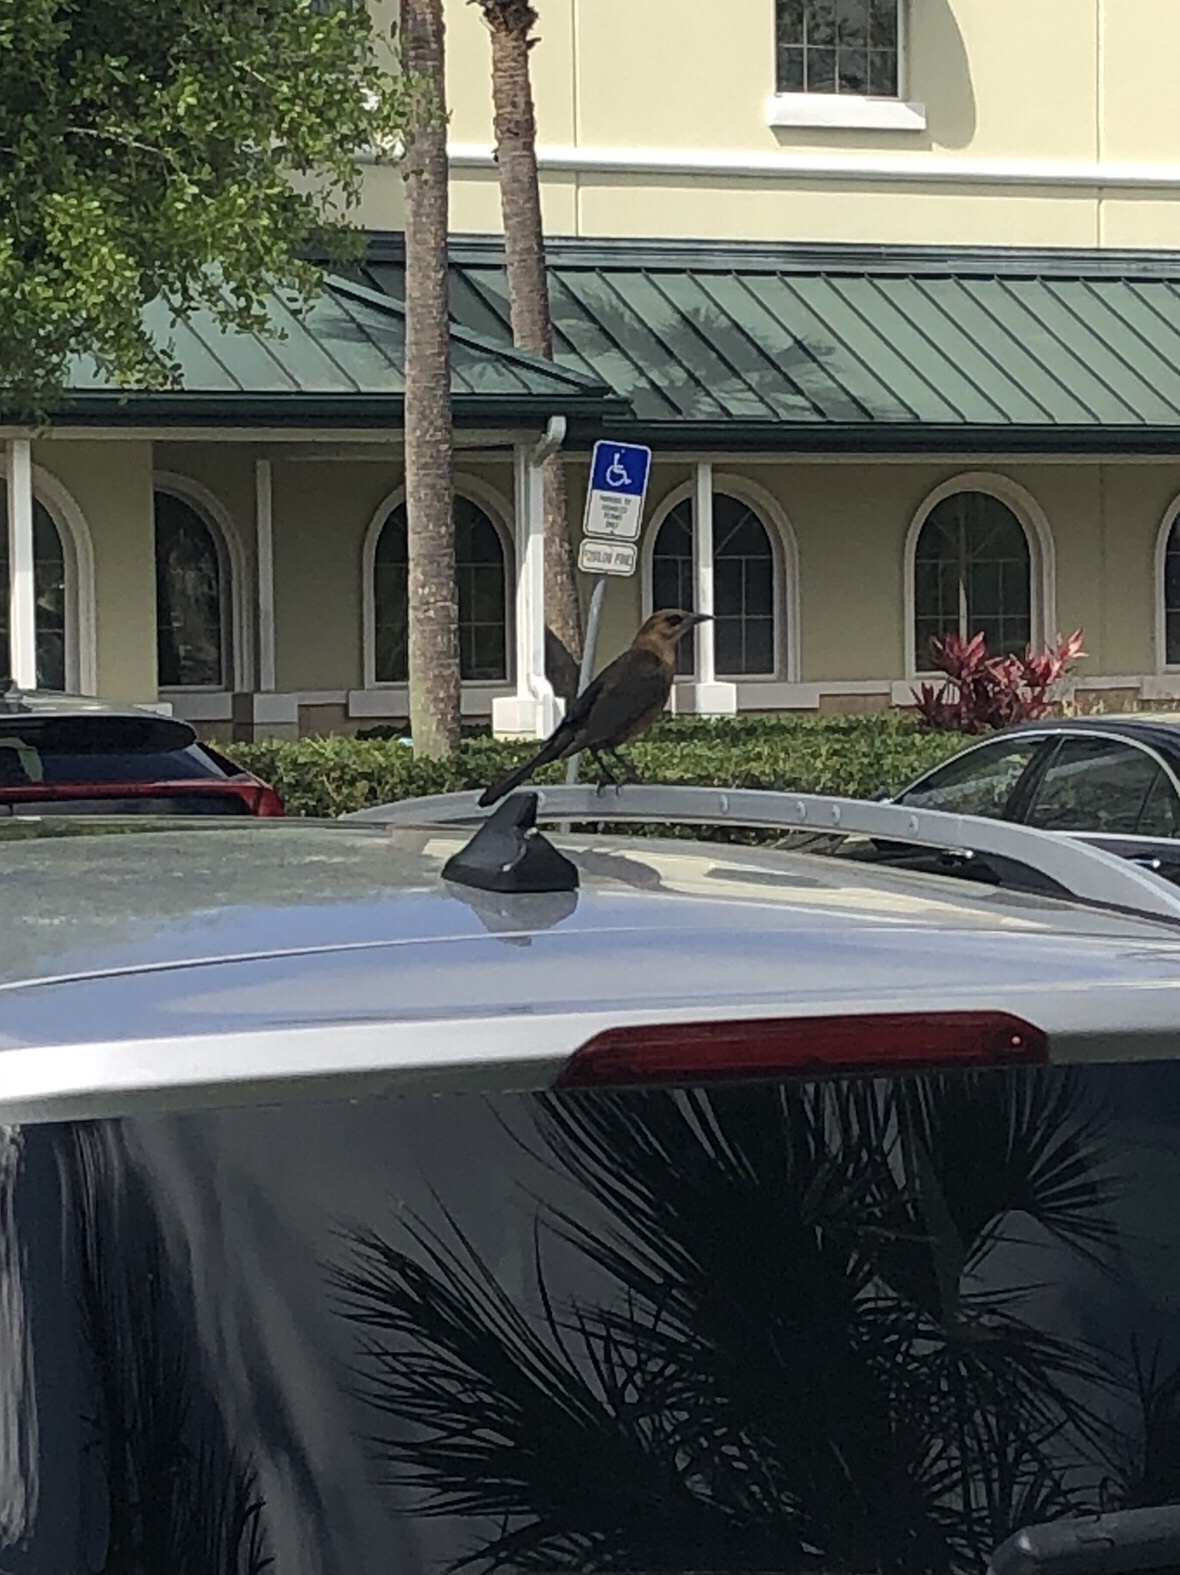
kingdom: Animalia
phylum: Chordata
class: Aves
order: Passeriformes
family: Icteridae
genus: Quiscalus
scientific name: Quiscalus major
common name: Boat-tailed grackle
